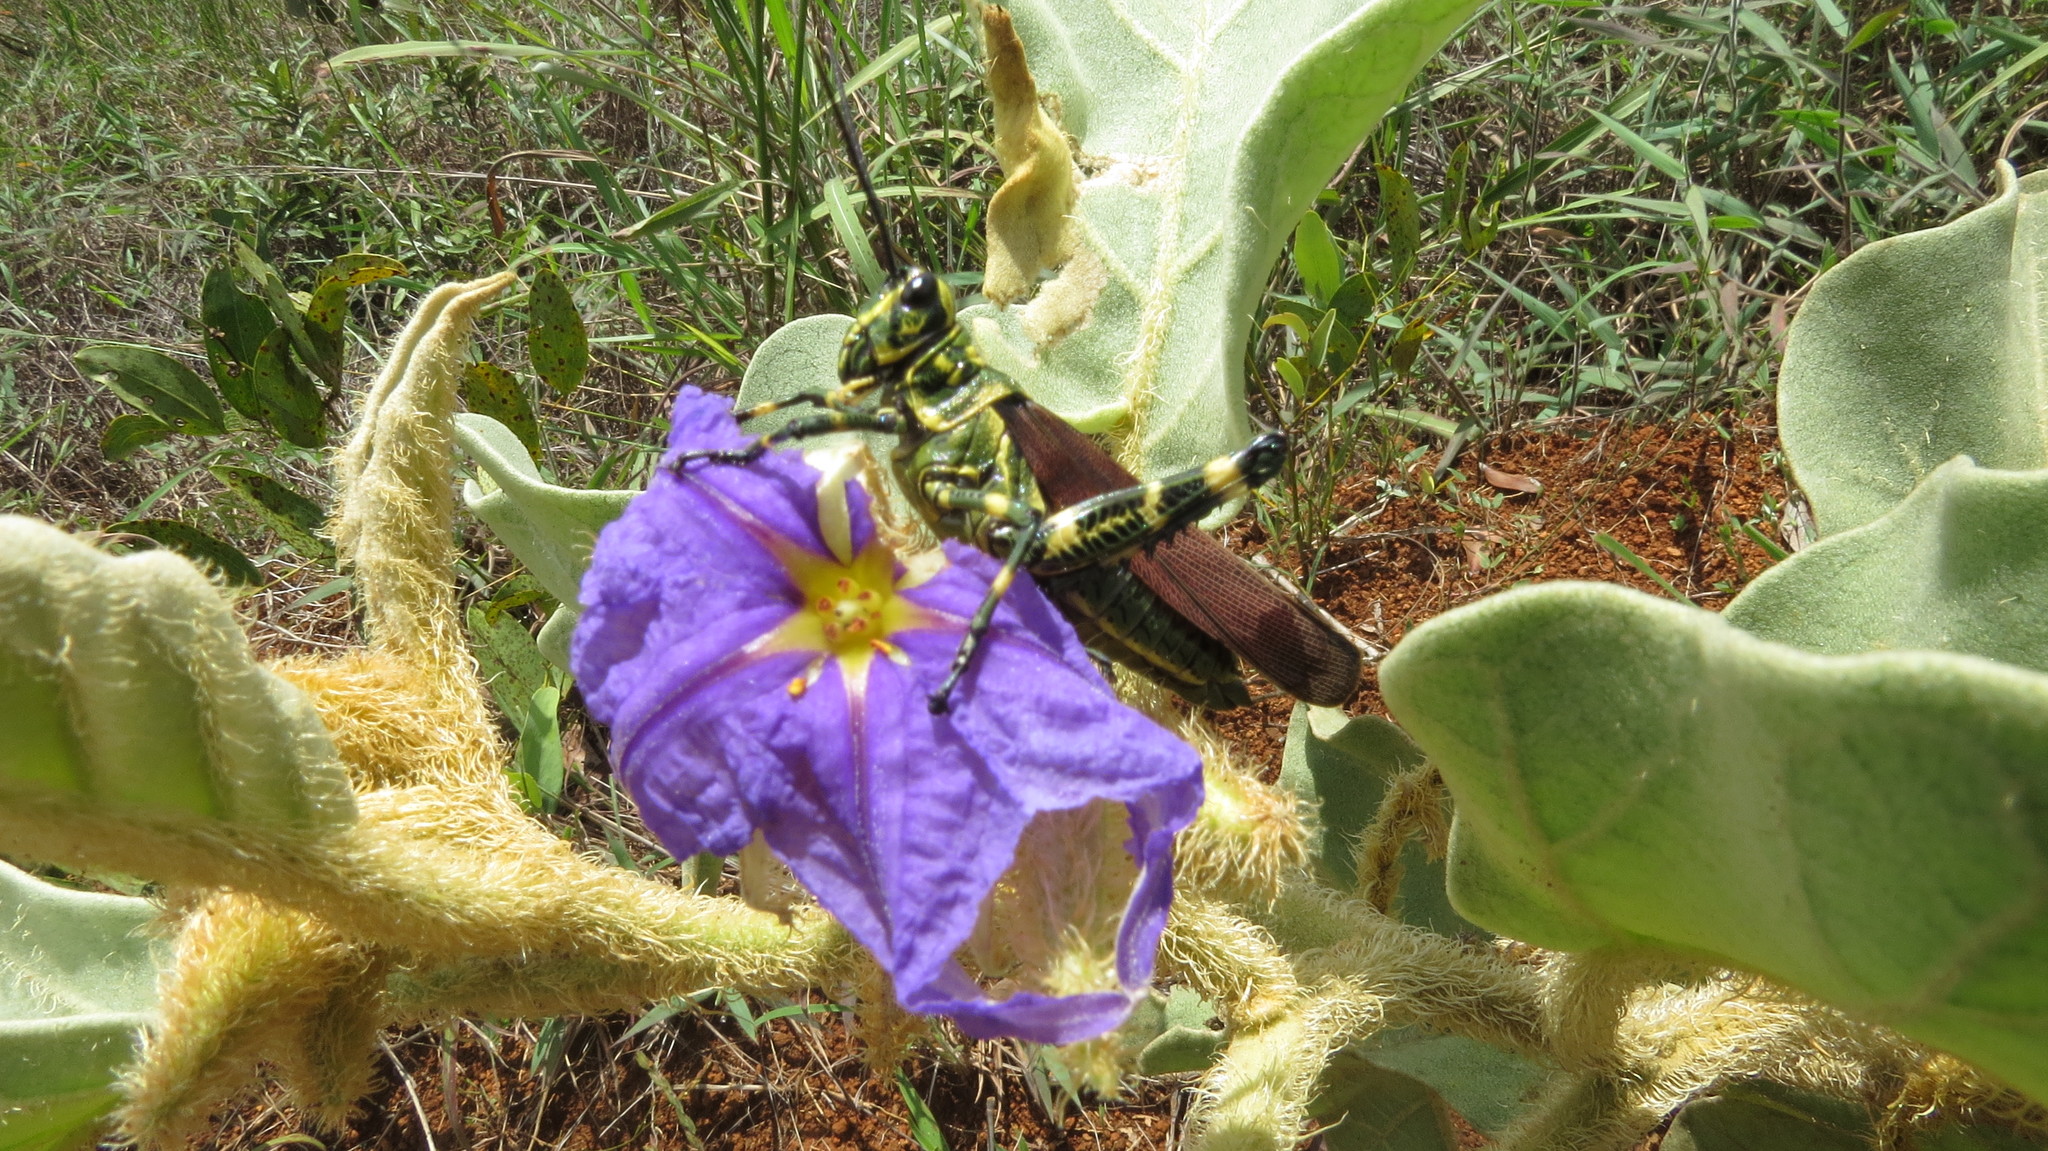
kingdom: Animalia
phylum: Arthropoda
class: Insecta
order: Orthoptera
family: Romaleidae
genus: Chromacris
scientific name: Chromacris speciosa
